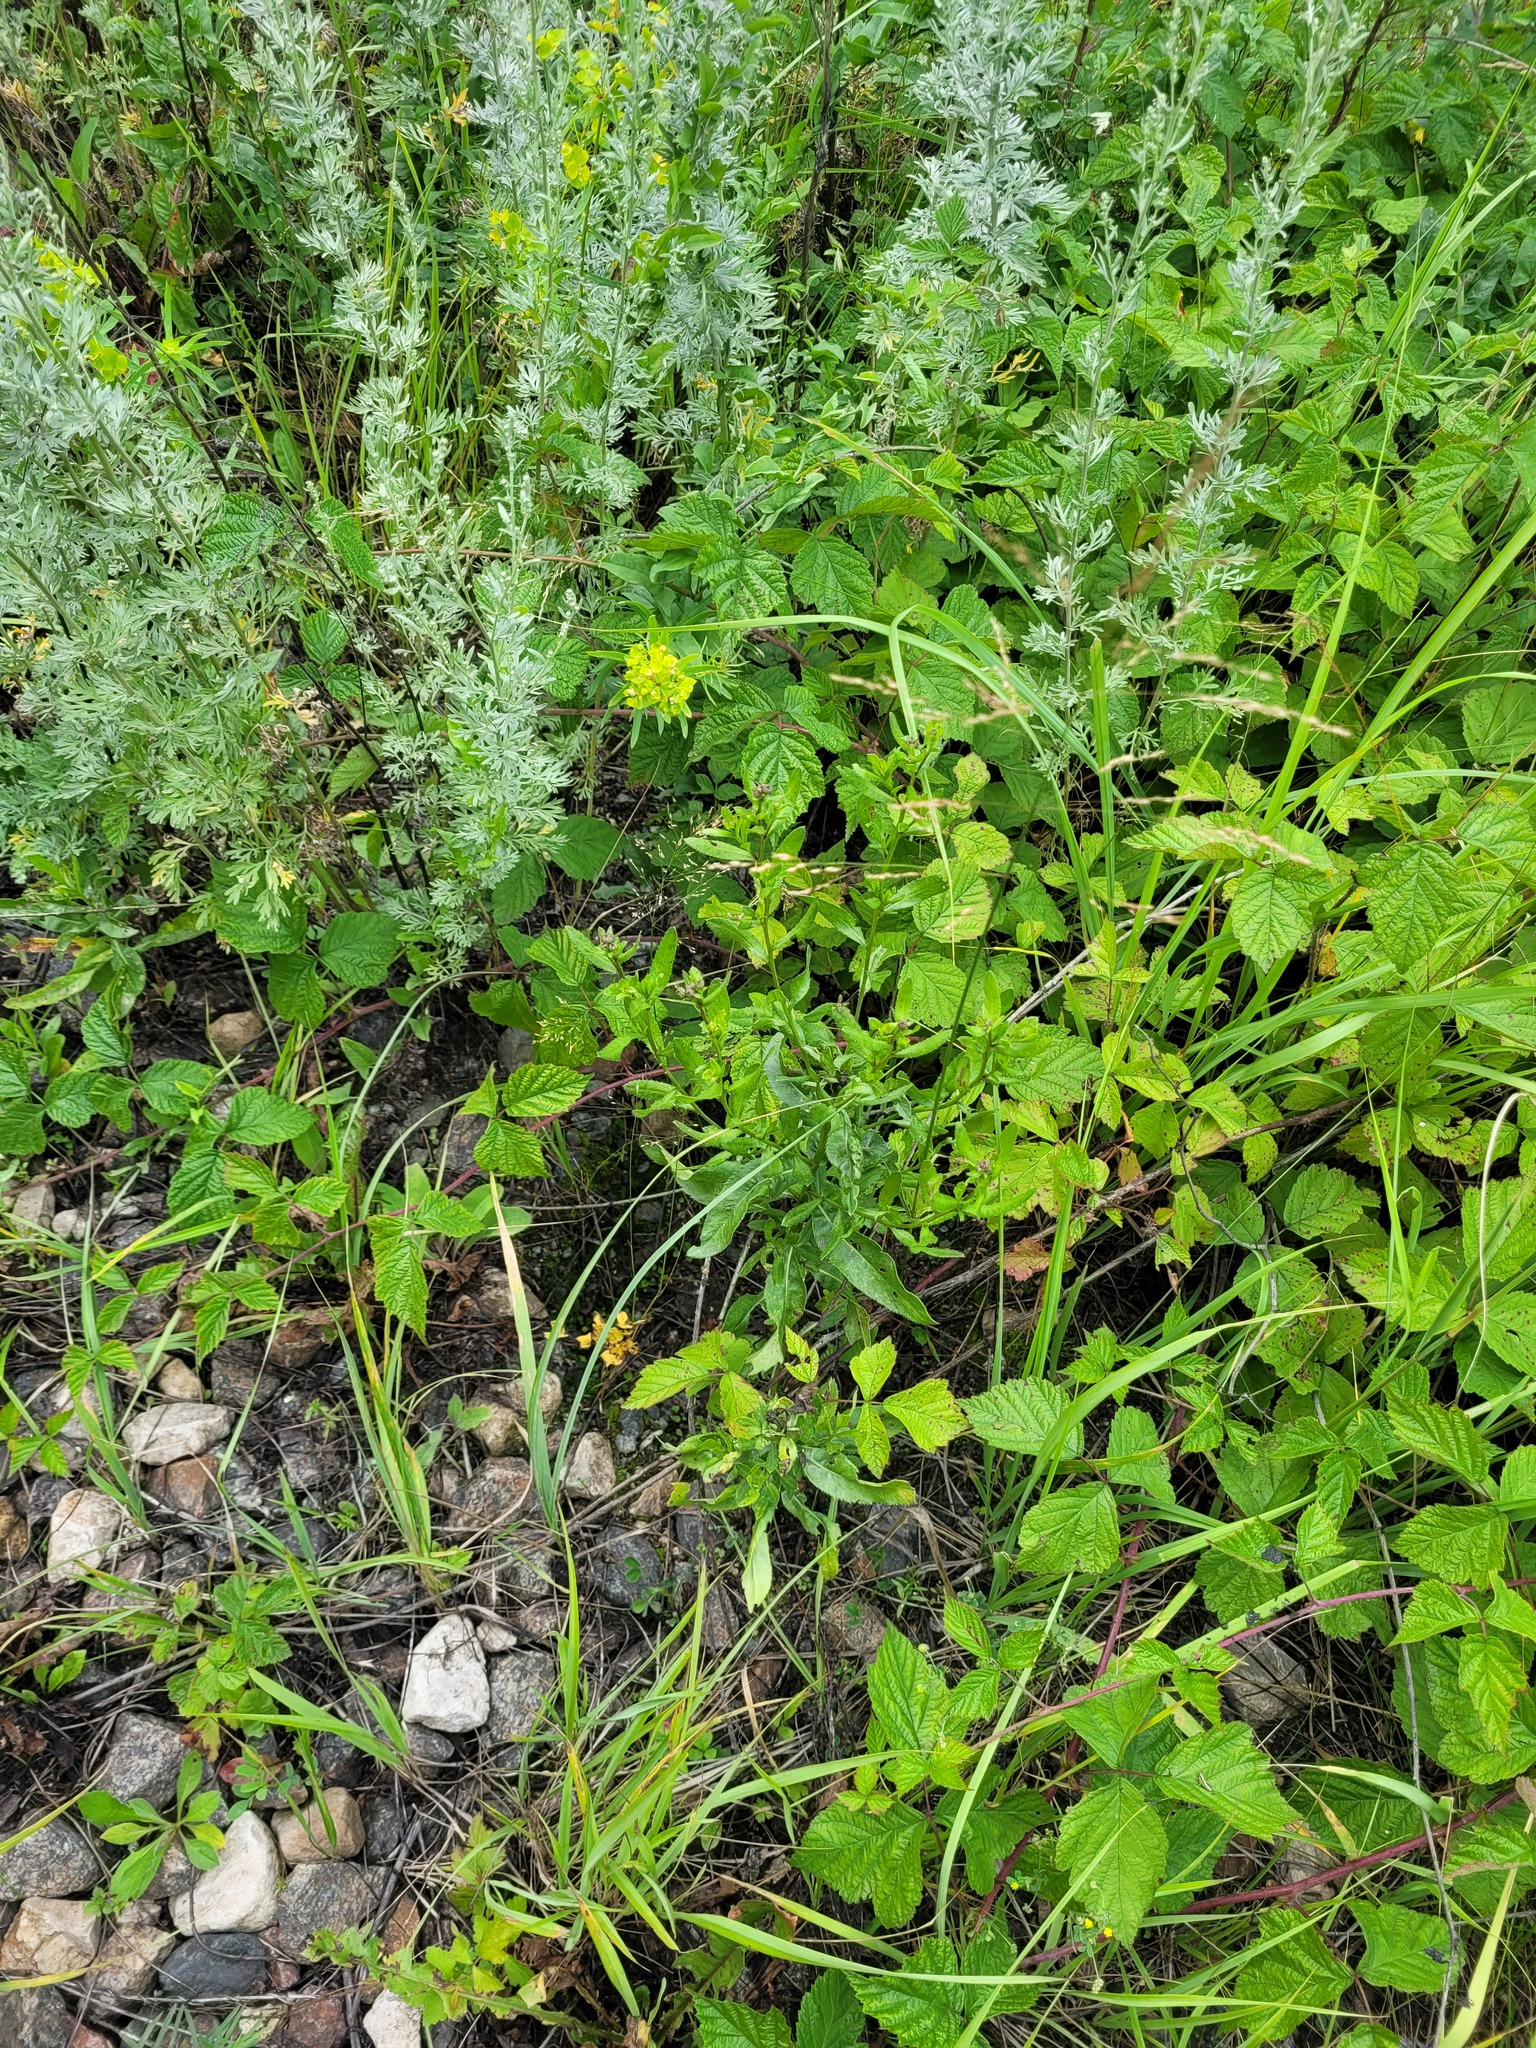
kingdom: Plantae
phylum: Tracheophyta
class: Magnoliopsida
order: Asterales
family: Asteraceae
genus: Cirsium
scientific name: Cirsium arvense
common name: Creeping thistle
